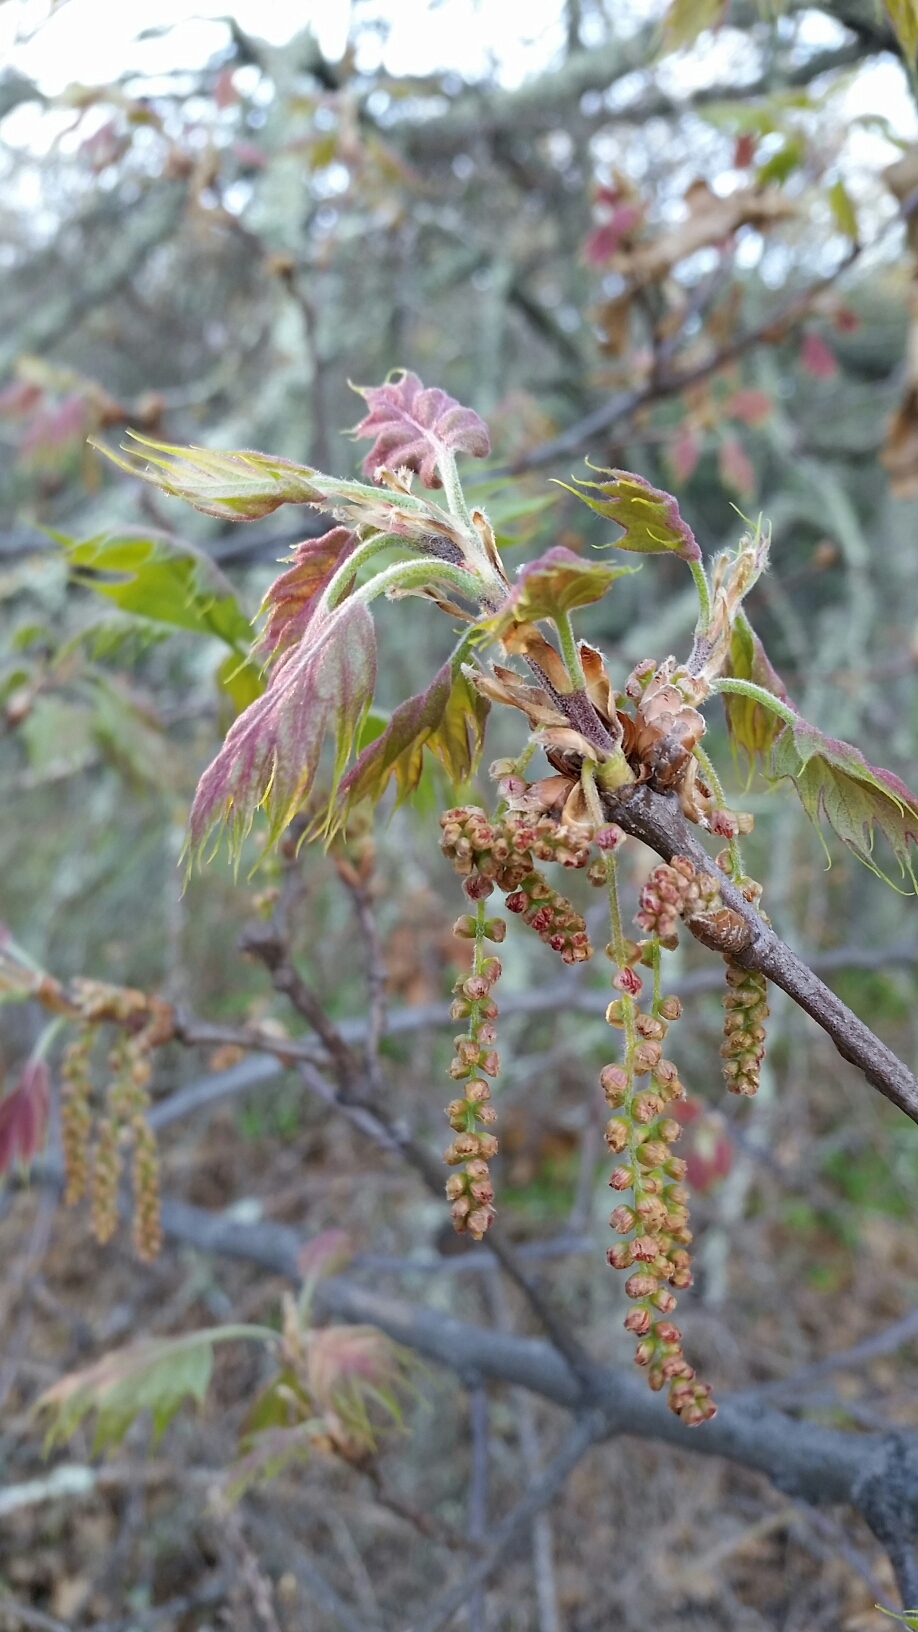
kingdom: Plantae
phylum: Tracheophyta
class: Magnoliopsida
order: Fagales
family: Fagaceae
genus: Quercus
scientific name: Quercus kelloggii
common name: California black oak
